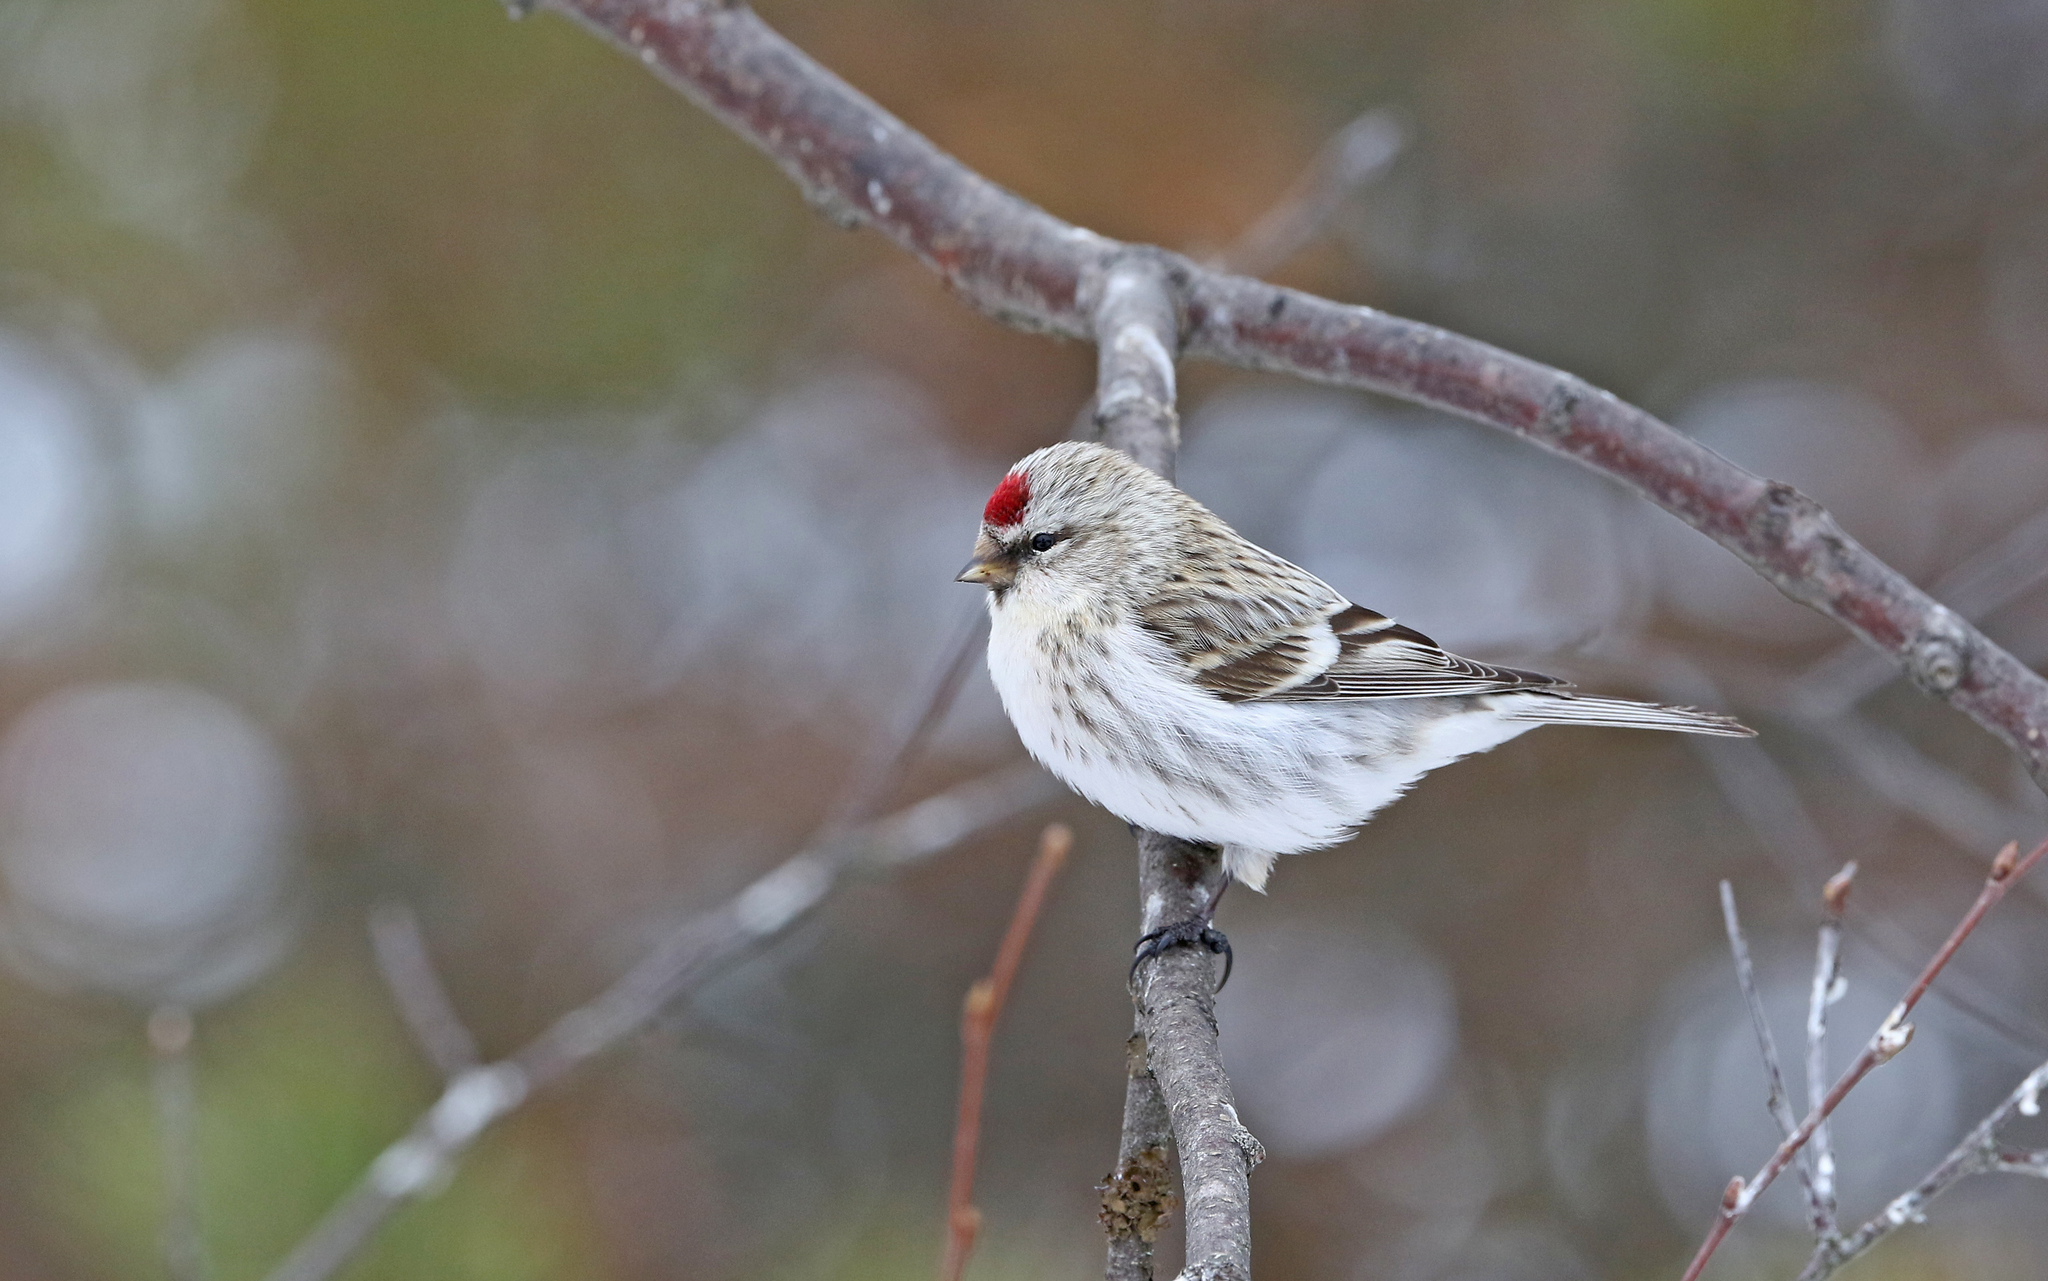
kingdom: Animalia
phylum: Chordata
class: Aves
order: Passeriformes
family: Fringillidae
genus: Acanthis
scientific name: Acanthis hornemanni
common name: Arctic redpoll
